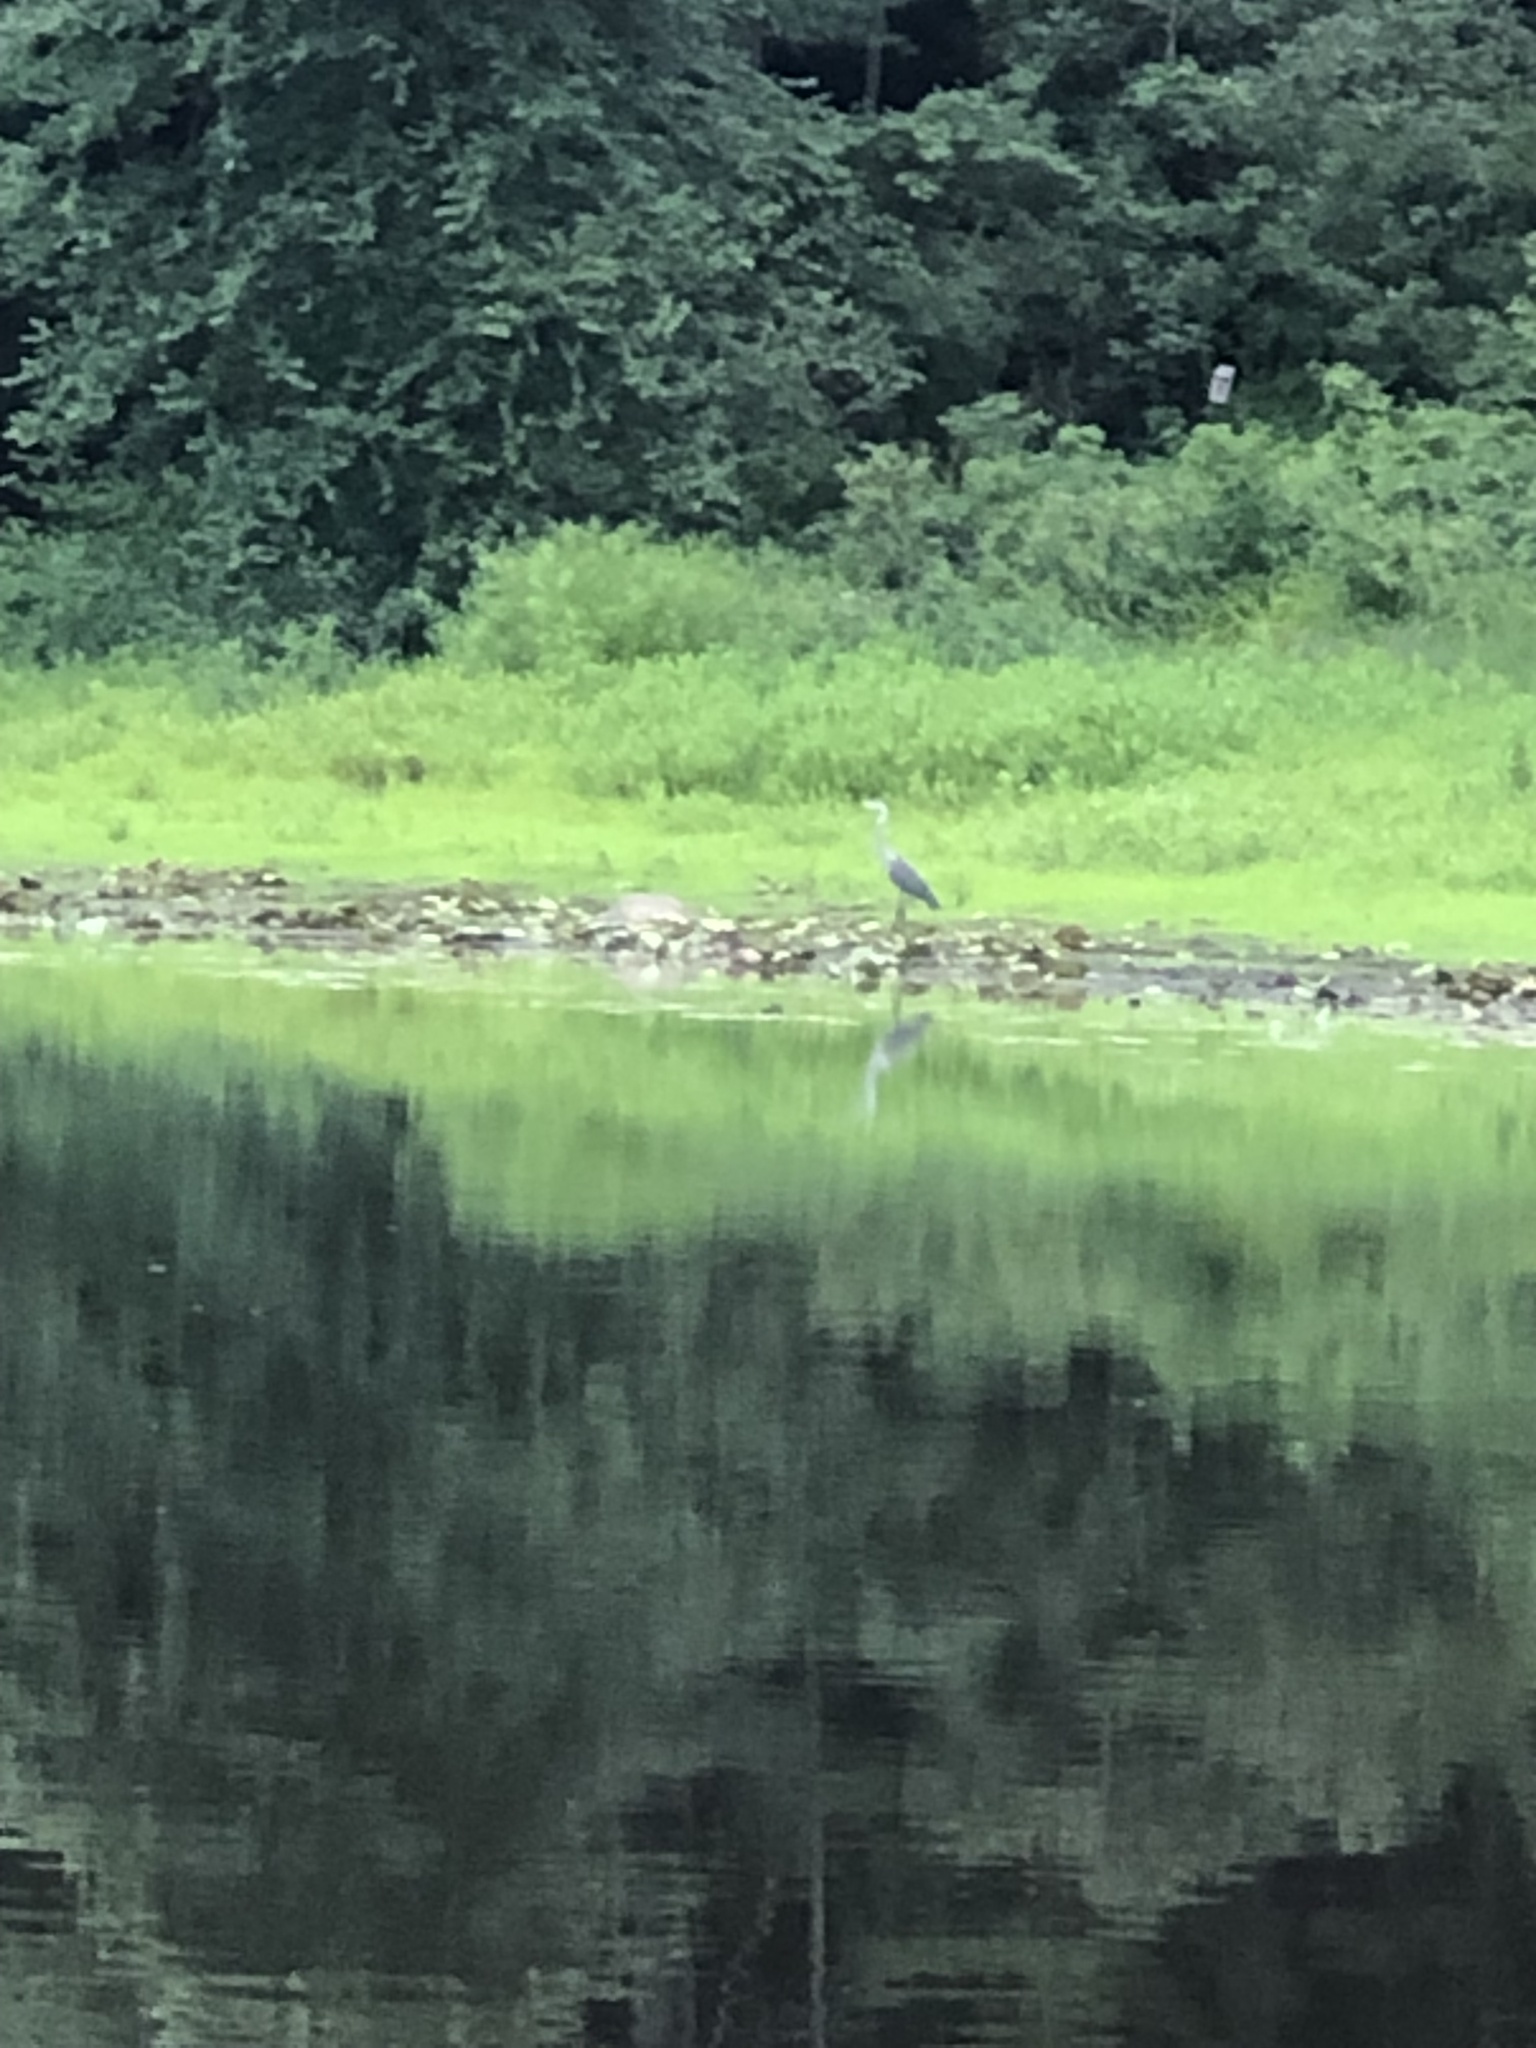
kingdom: Animalia
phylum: Chordata
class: Aves
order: Pelecaniformes
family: Ardeidae
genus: Ardea
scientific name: Ardea herodias
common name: Great blue heron
